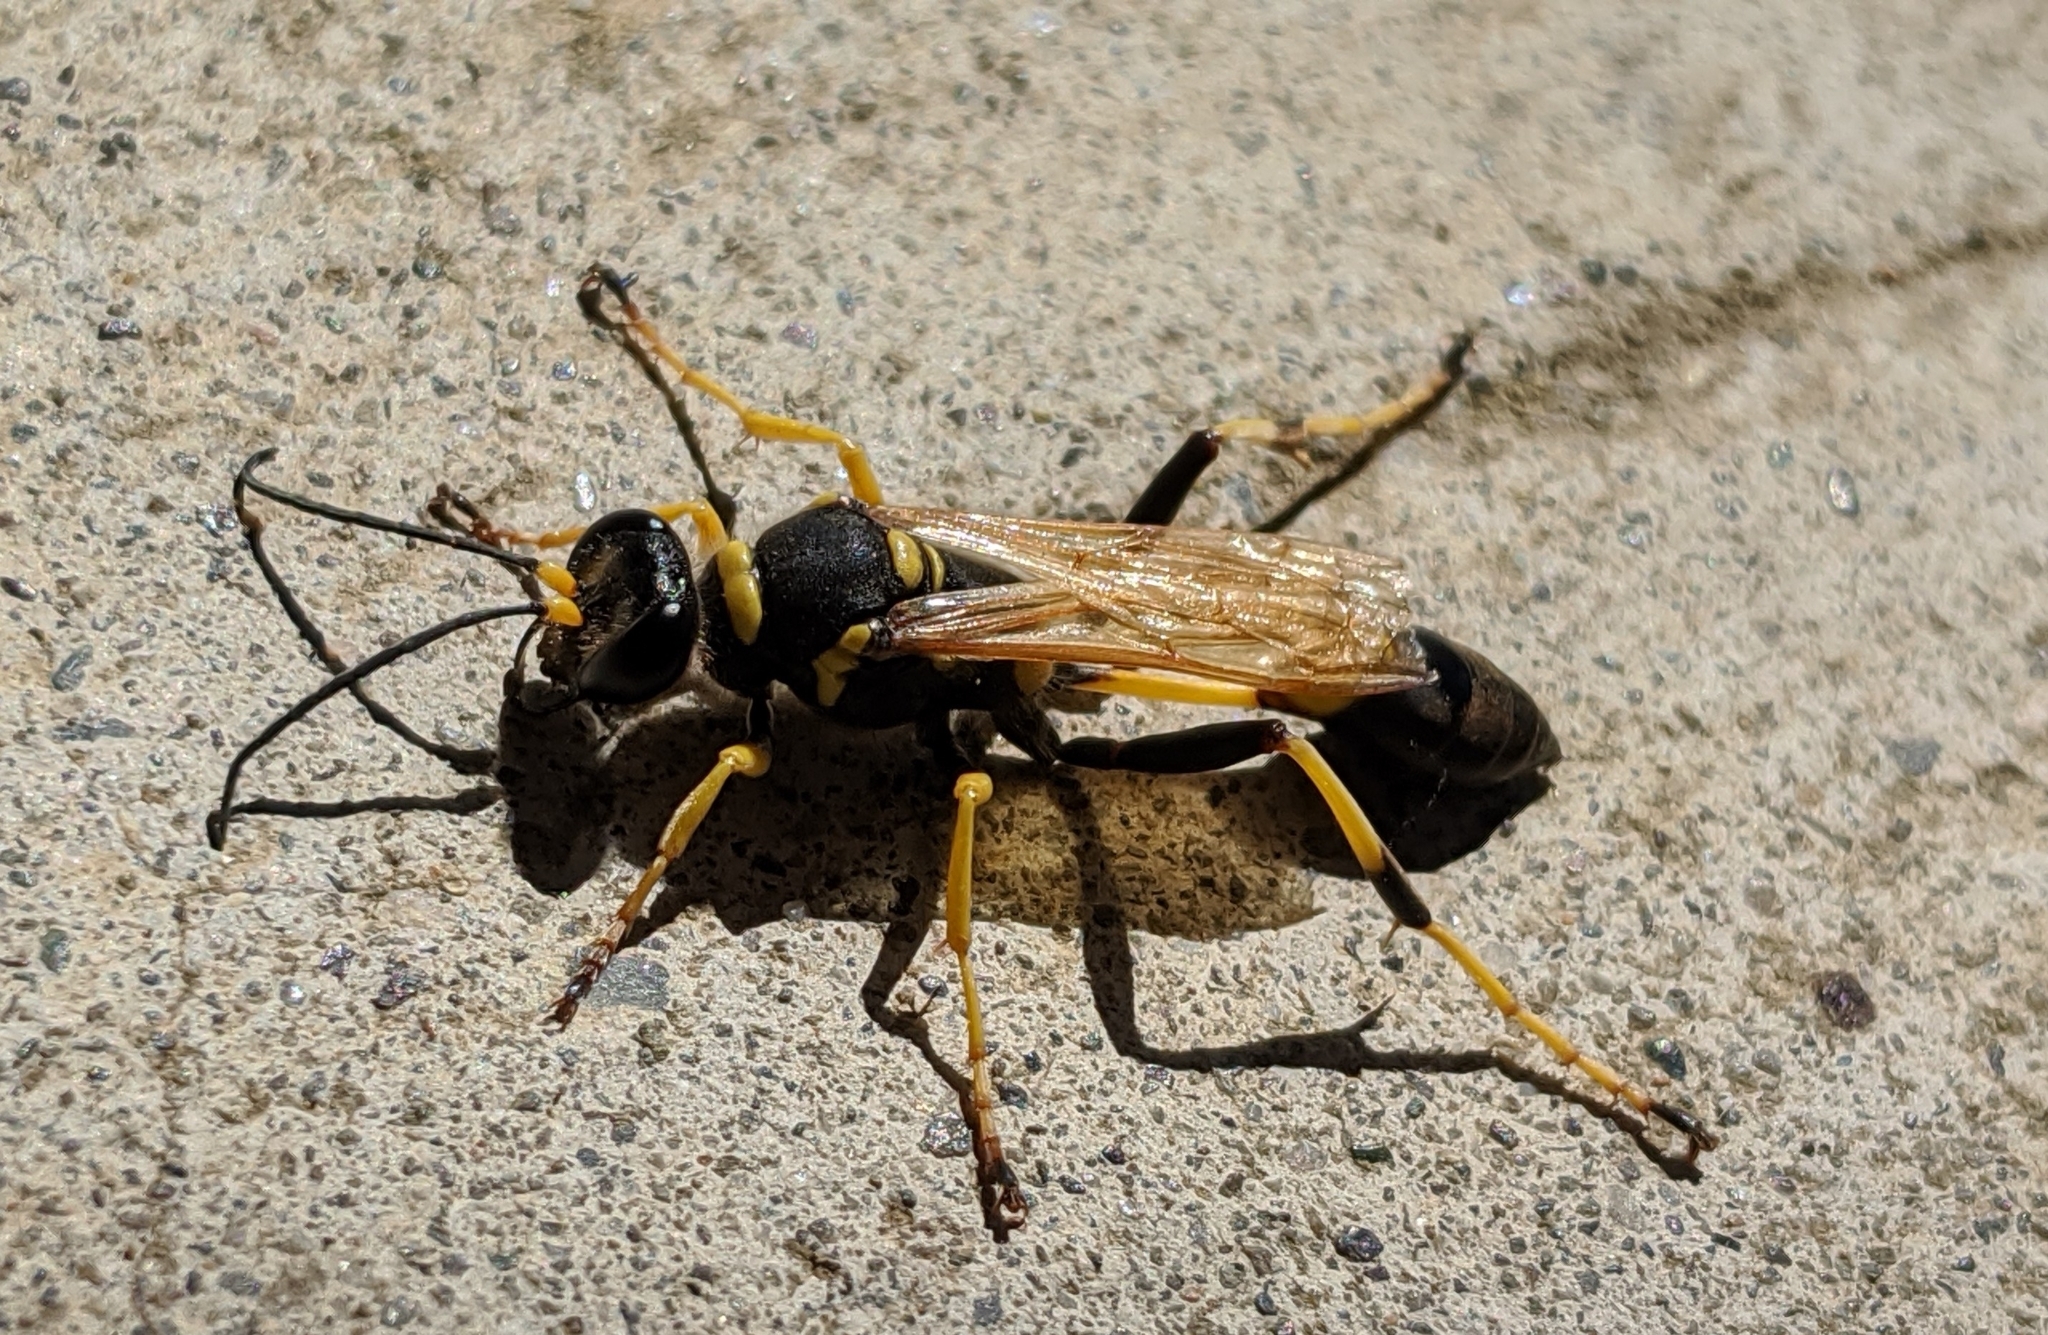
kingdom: Animalia
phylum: Arthropoda
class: Insecta
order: Hymenoptera
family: Sphecidae
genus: Sceliphron
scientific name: Sceliphron caementarium
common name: Mud dauber
